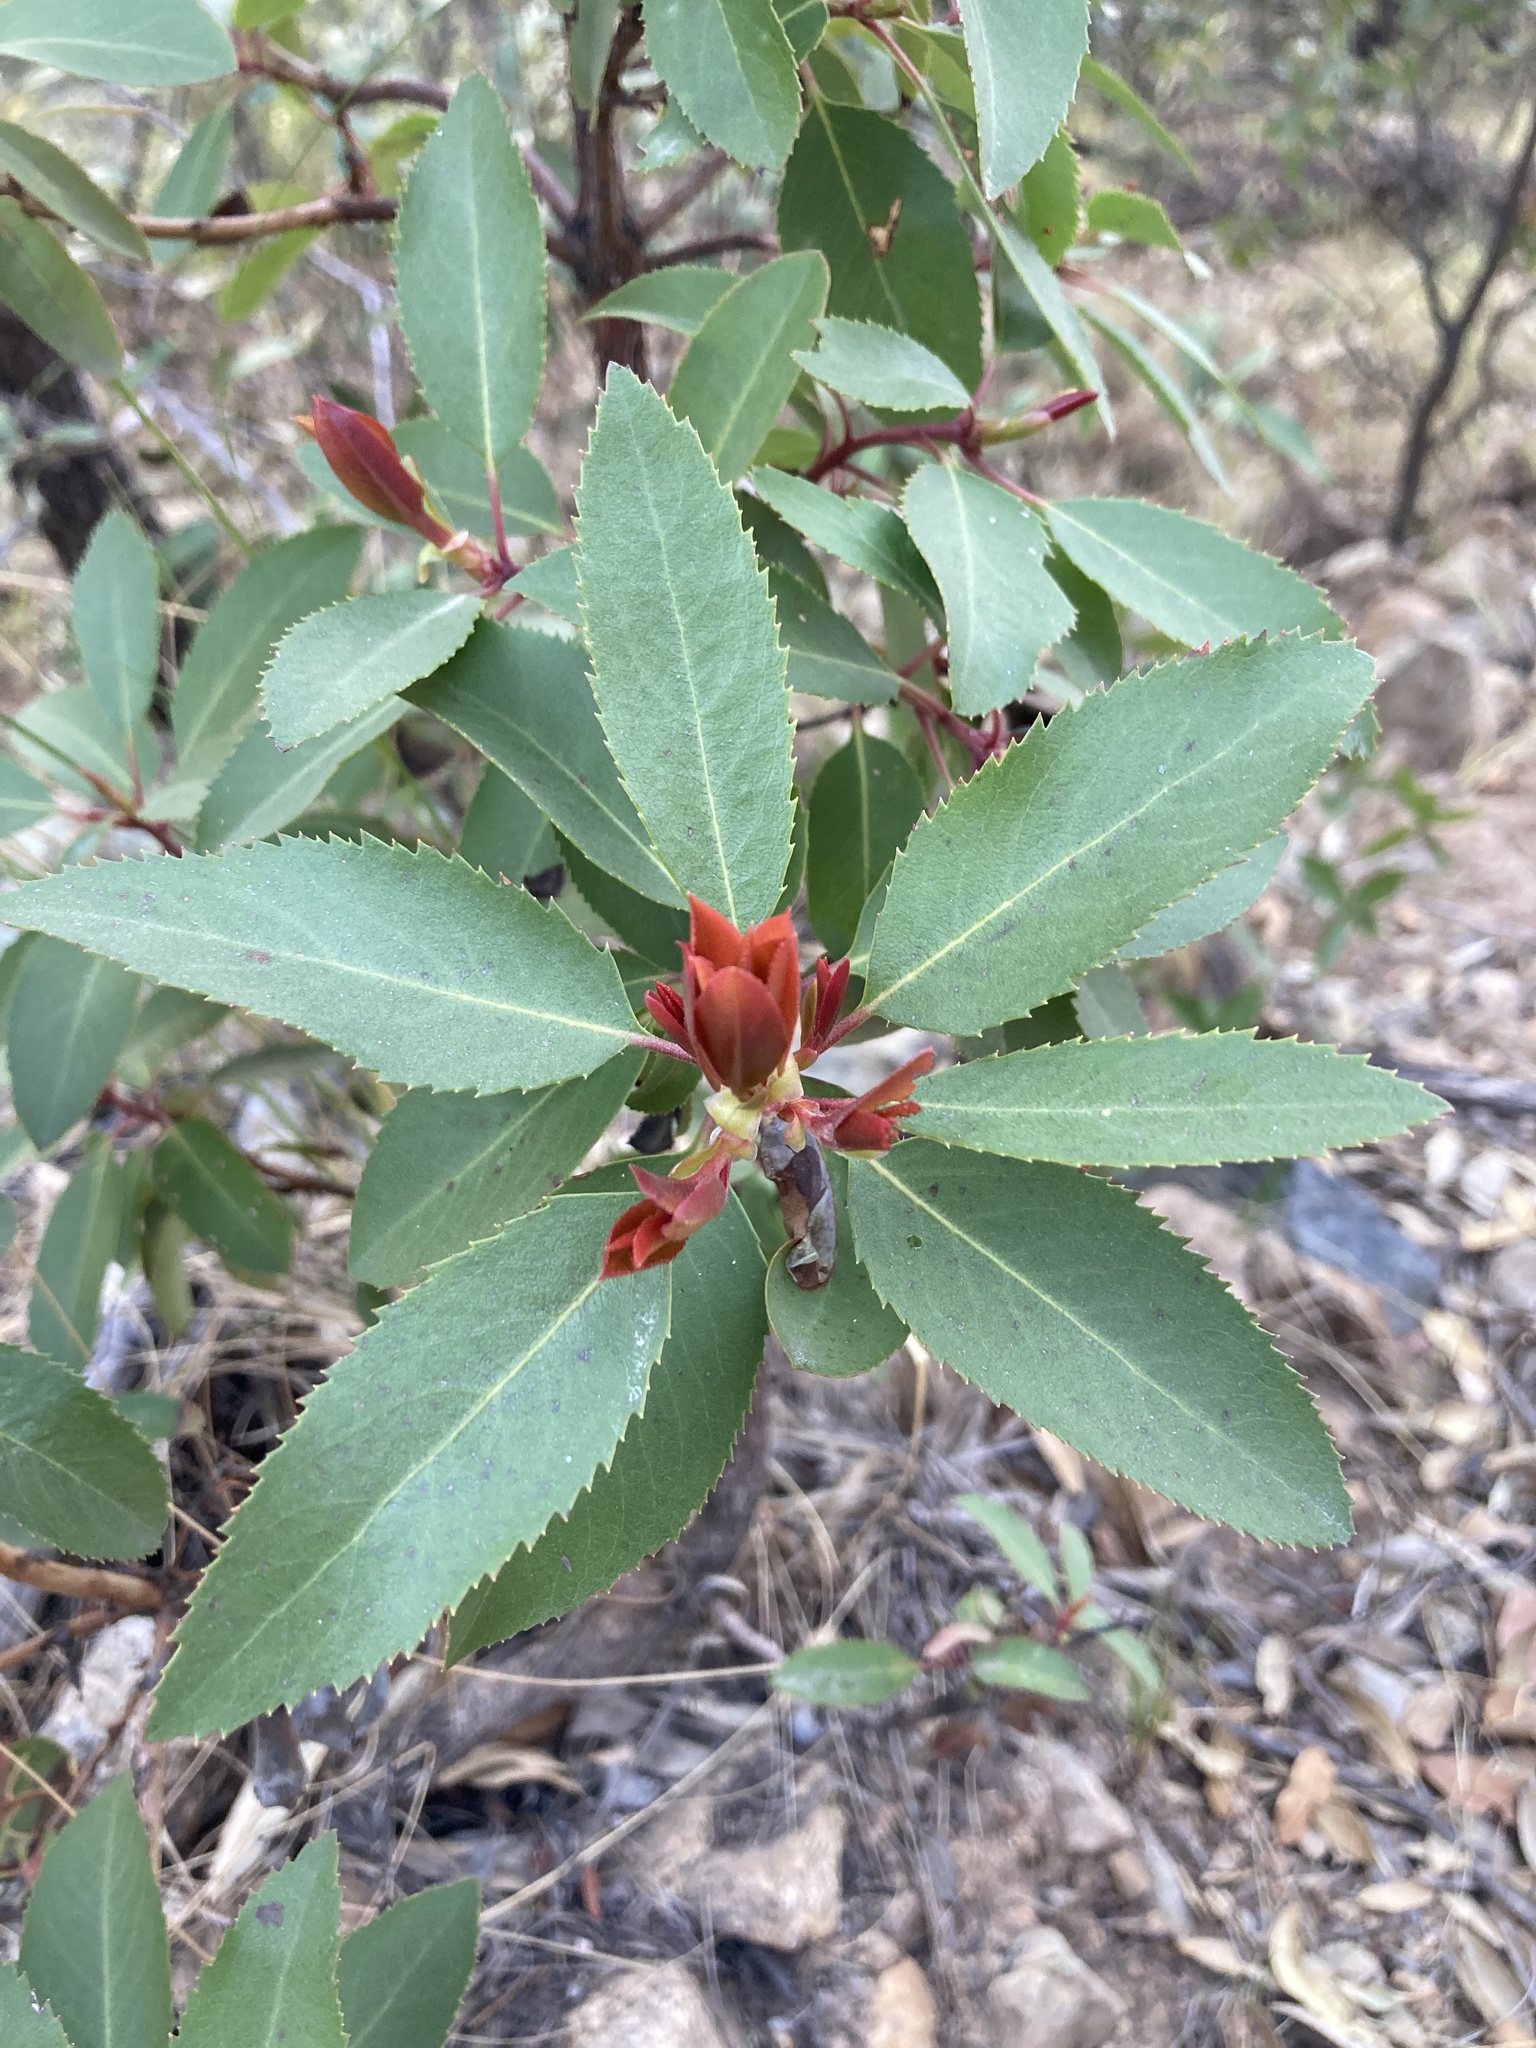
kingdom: Plantae
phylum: Tracheophyta
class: Magnoliopsida
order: Ericales
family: Ericaceae
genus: Arbutus
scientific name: Arbutus arizonica
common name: Arizona madrone
